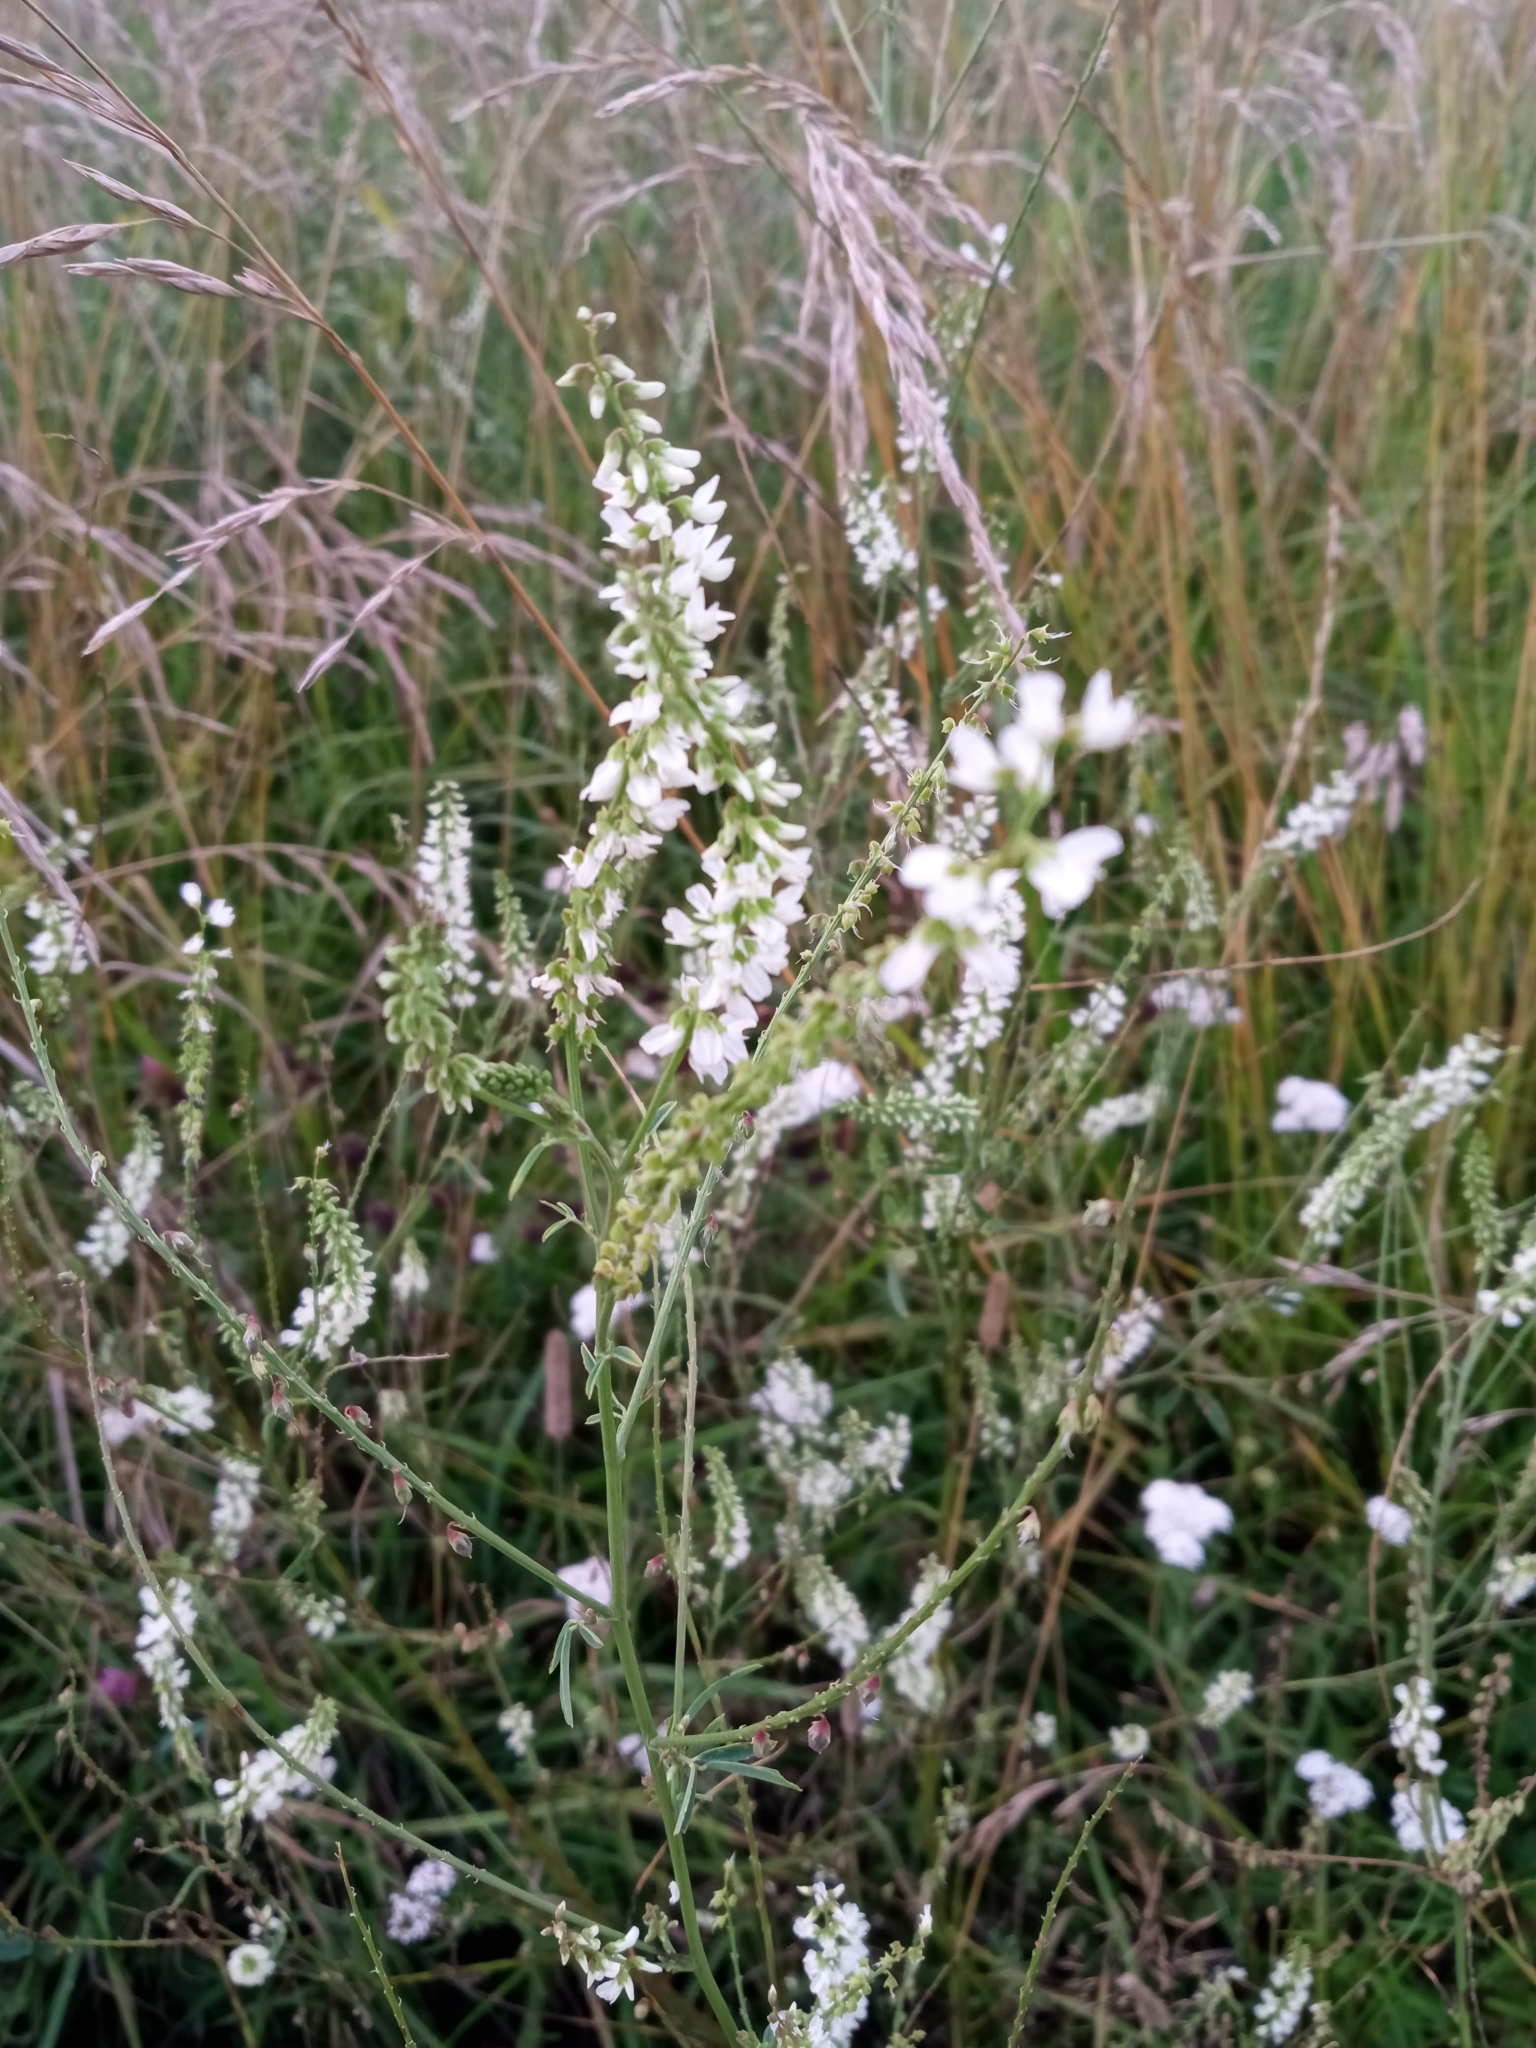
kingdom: Plantae
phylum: Tracheophyta
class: Magnoliopsida
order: Fabales
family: Fabaceae
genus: Melilotus
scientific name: Melilotus albus
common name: White melilot
